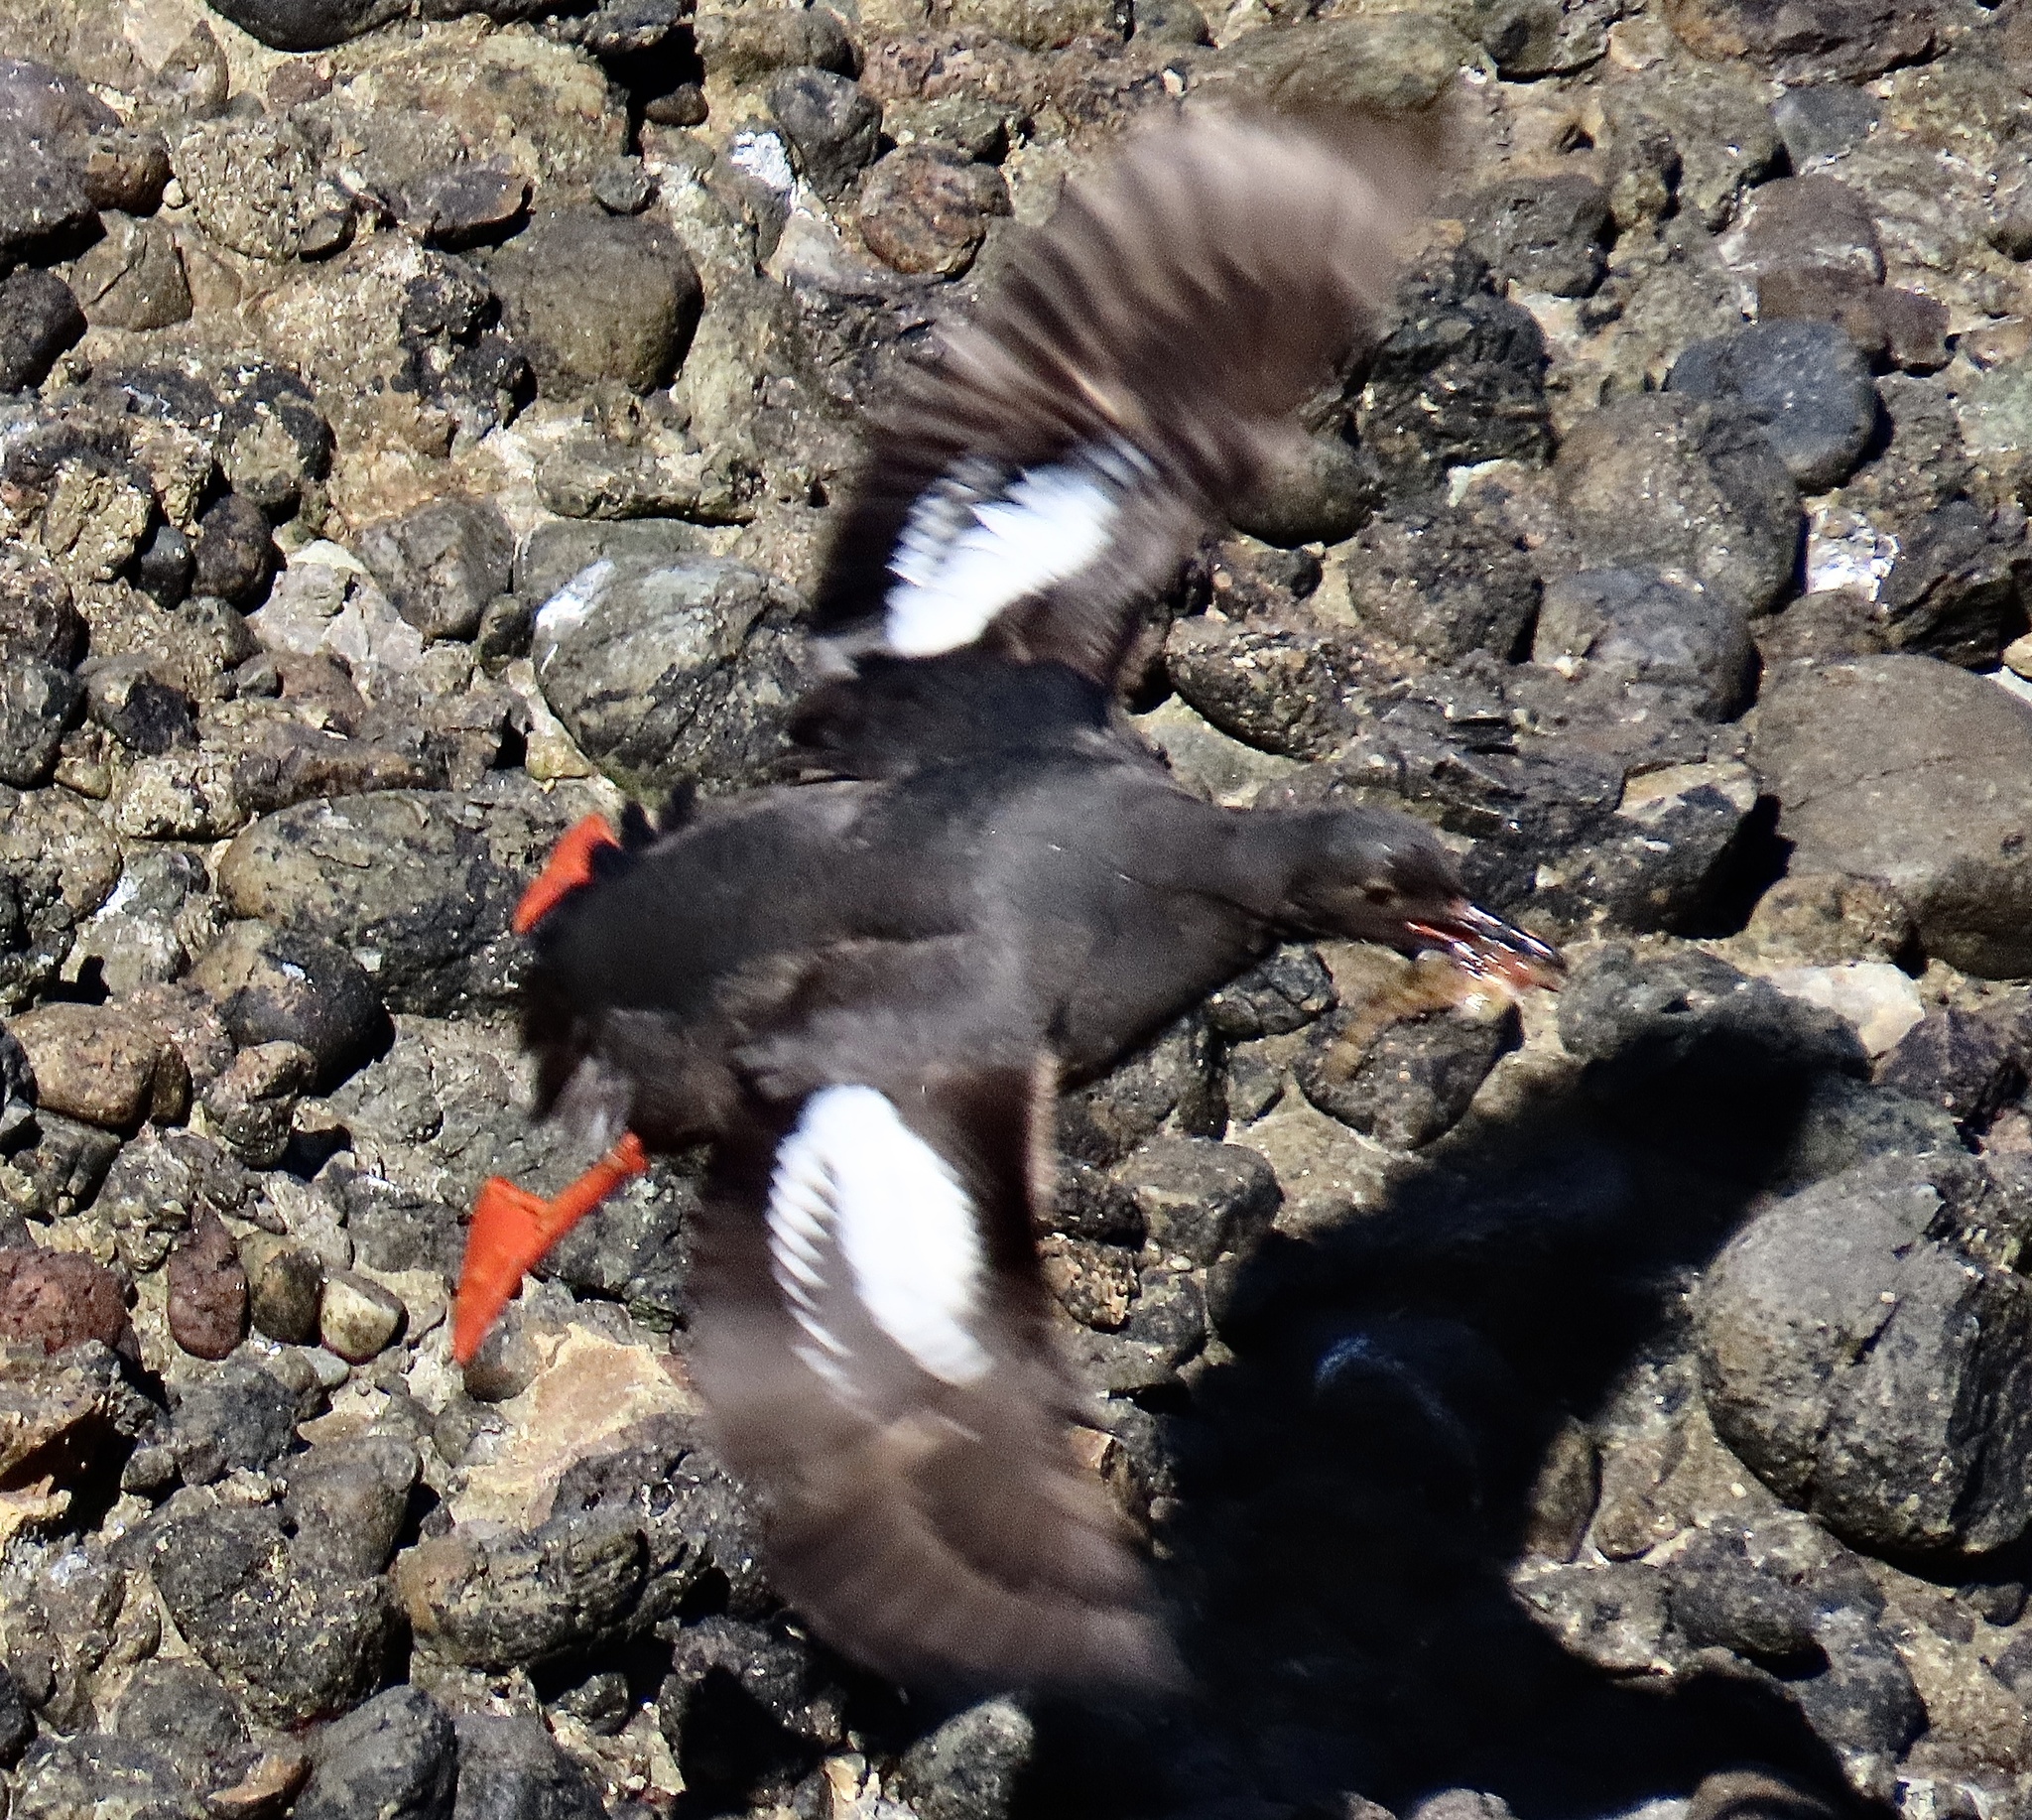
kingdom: Animalia
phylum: Chordata
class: Aves
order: Charadriiformes
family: Alcidae
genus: Cepphus
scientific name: Cepphus columba
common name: Pigeon guillemot
